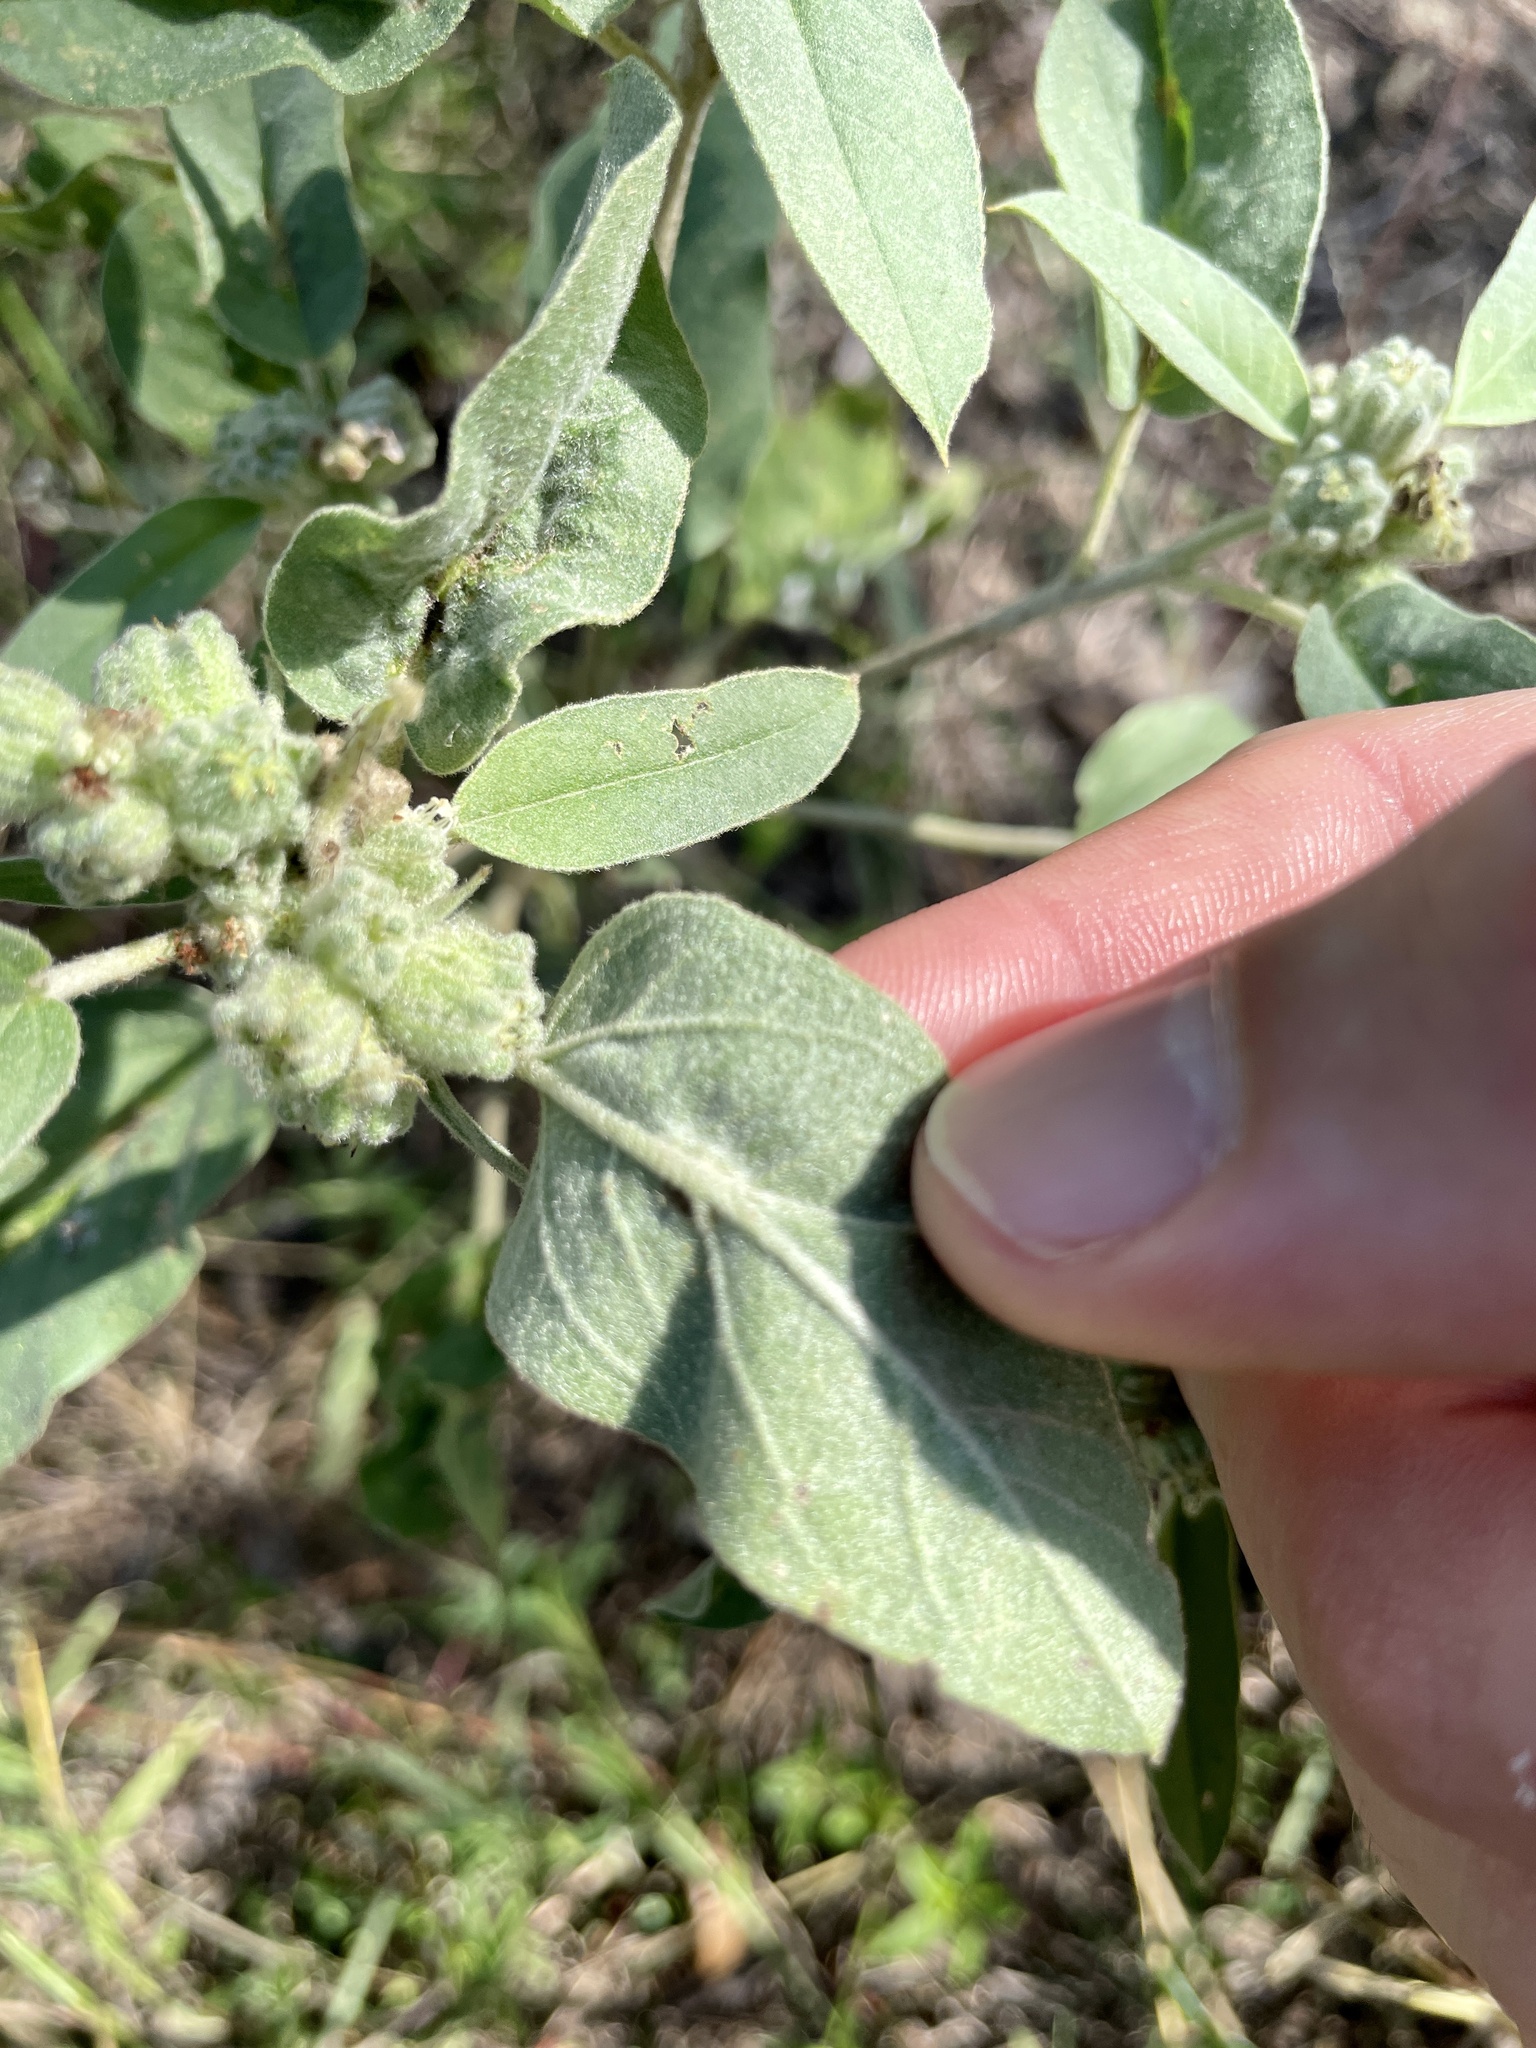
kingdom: Plantae
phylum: Tracheophyta
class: Magnoliopsida
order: Malpighiales
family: Euphorbiaceae
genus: Croton
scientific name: Croton lindheimeri
